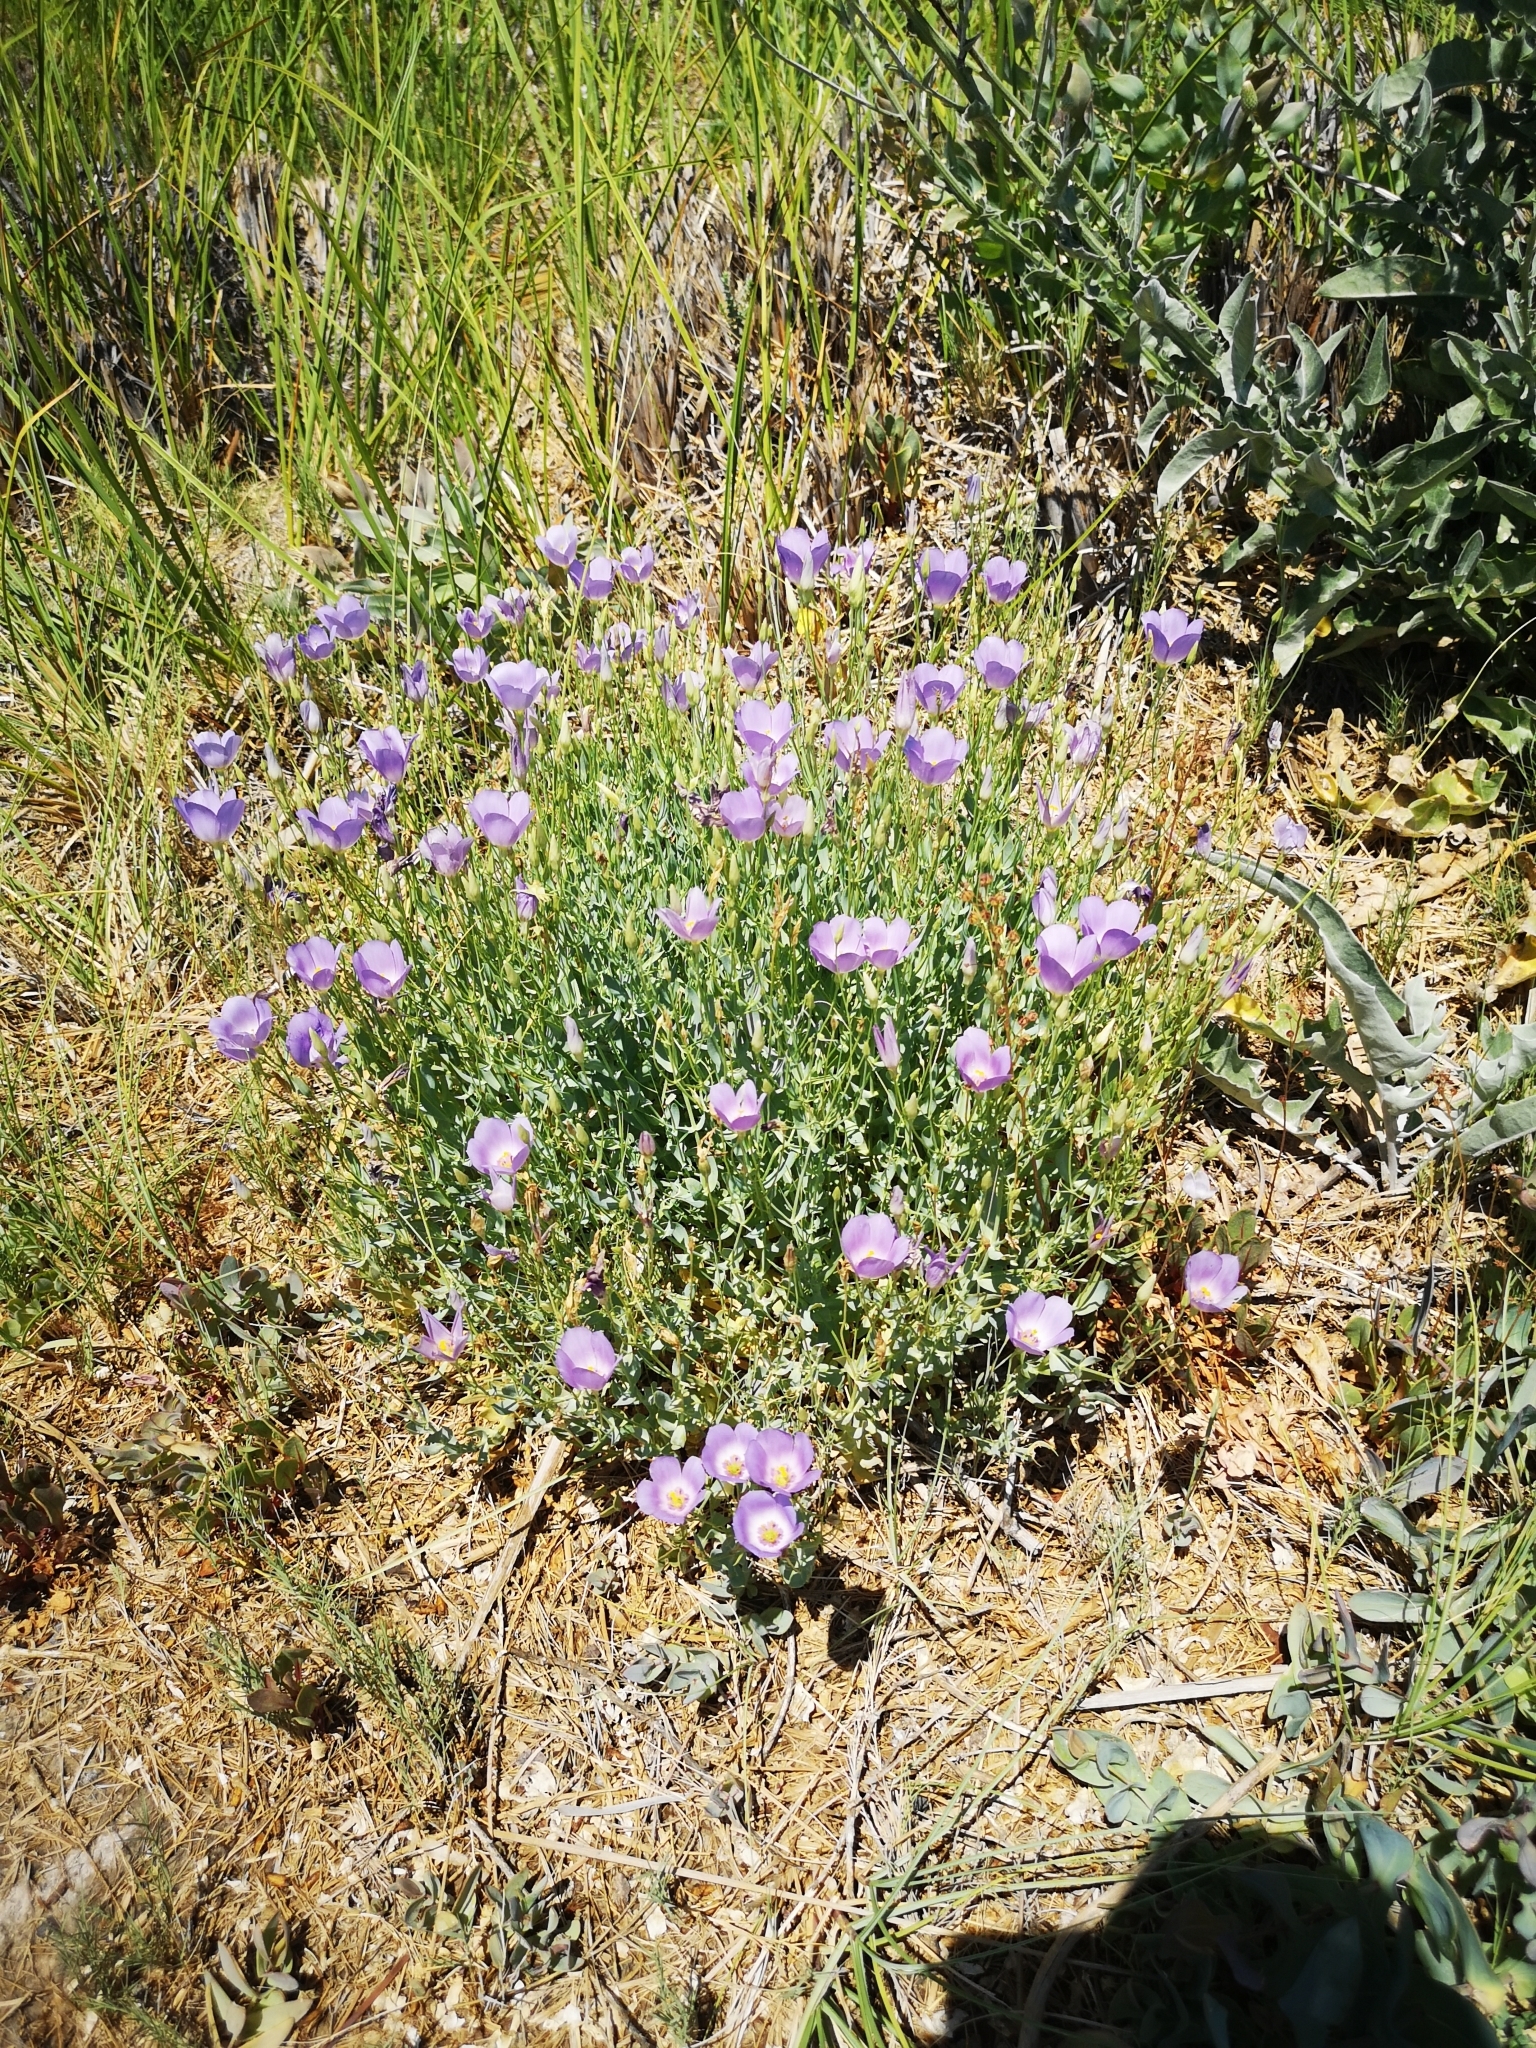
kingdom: Plantae
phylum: Tracheophyta
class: Magnoliopsida
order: Gentianales
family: Gentianaceae
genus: Eustoma
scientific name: Eustoma exaltatum
